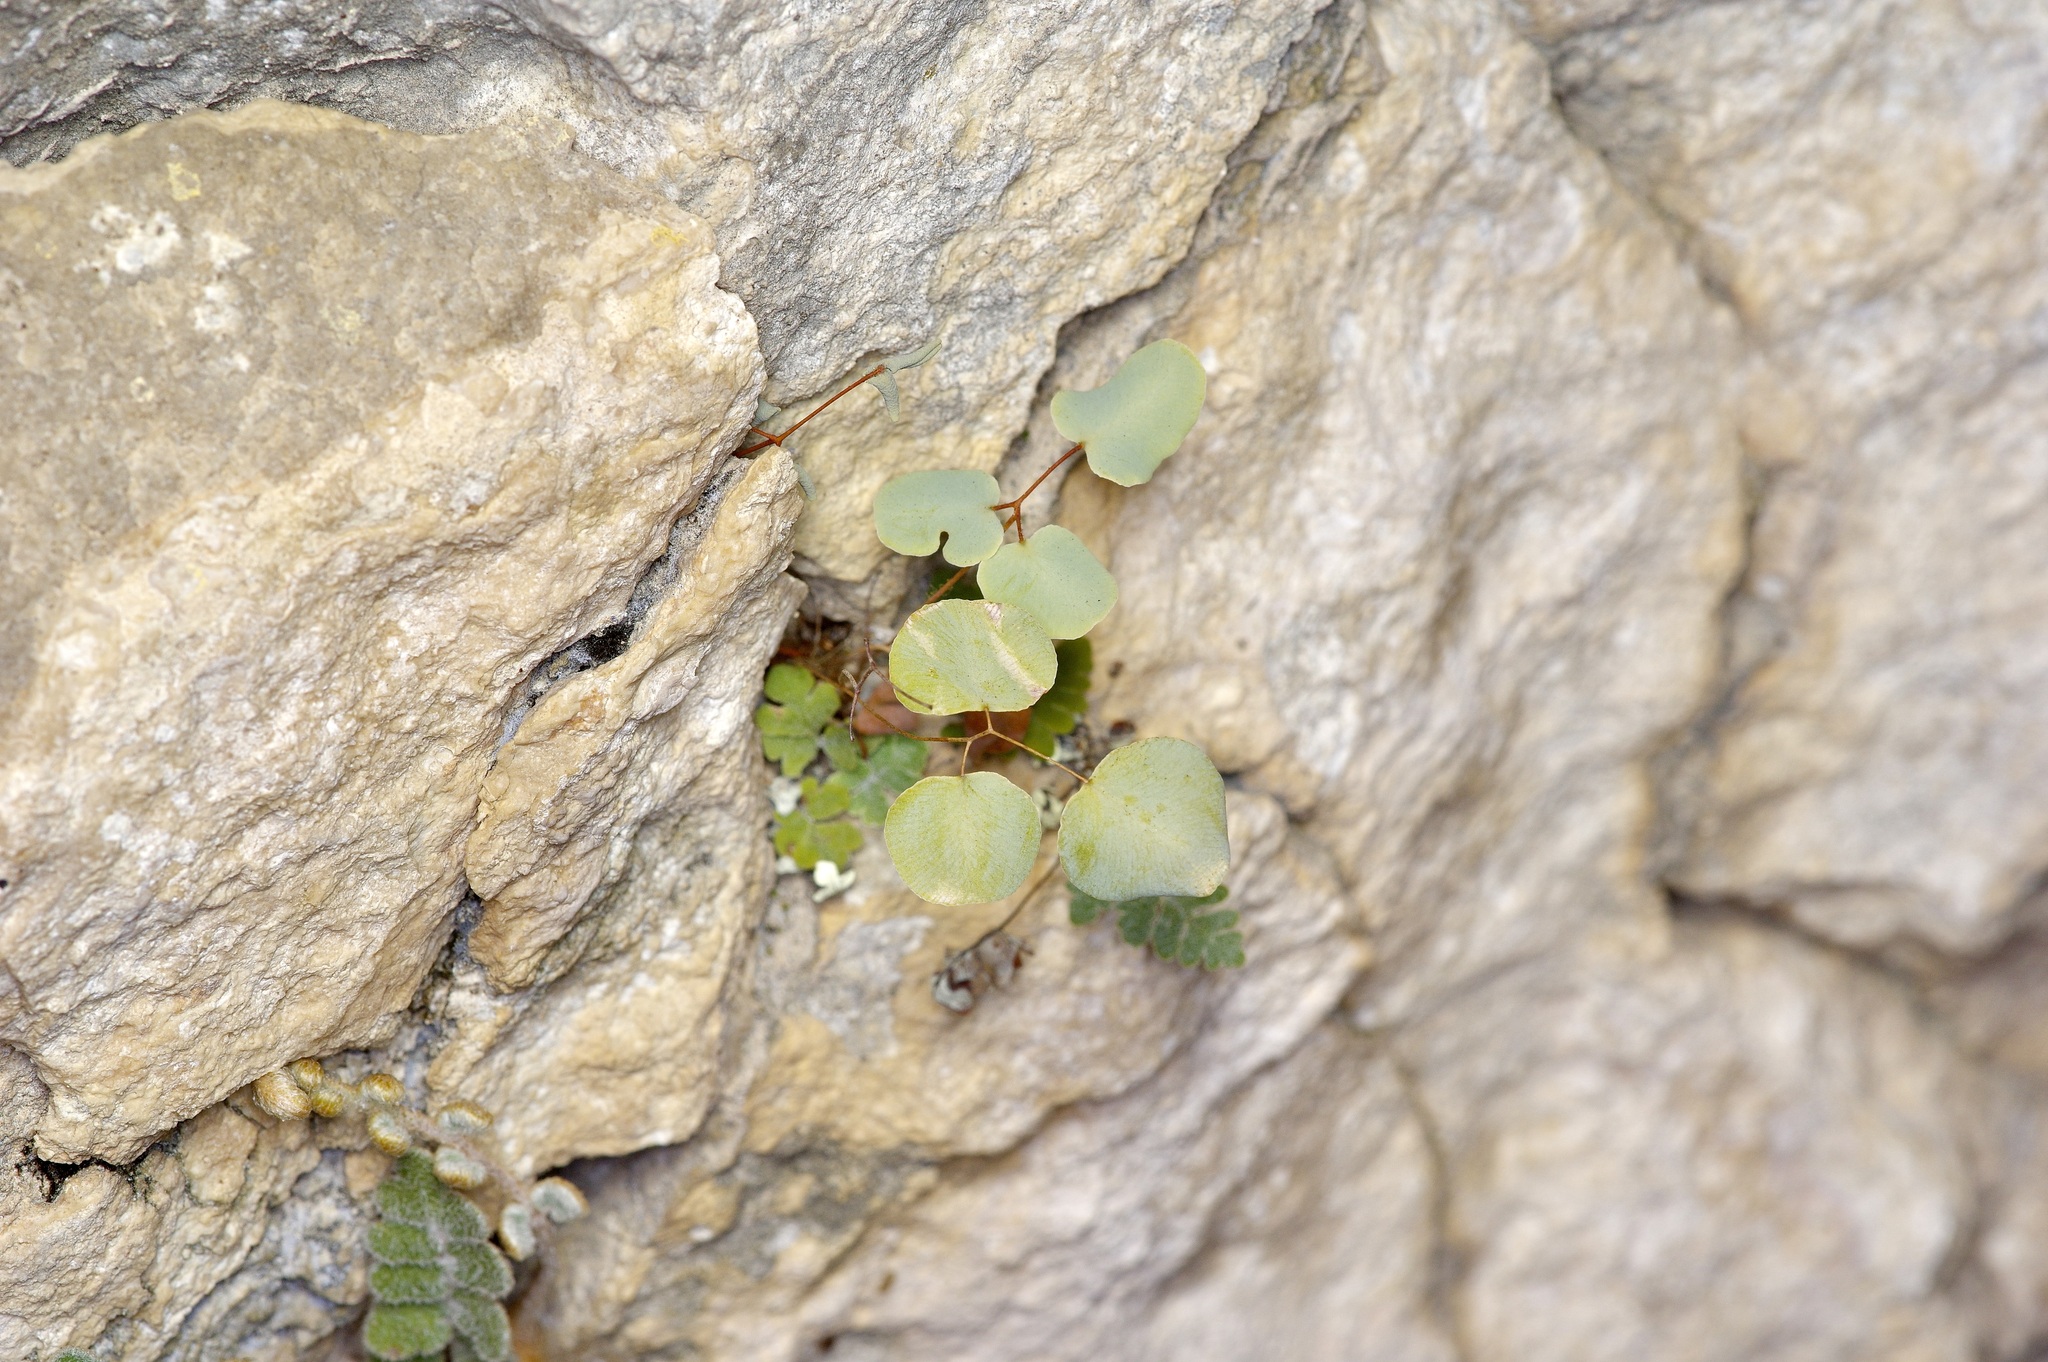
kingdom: Plantae
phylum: Tracheophyta
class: Polypodiopsida
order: Polypodiales
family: Pteridaceae
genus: Pellaea
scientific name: Pellaea ovata
